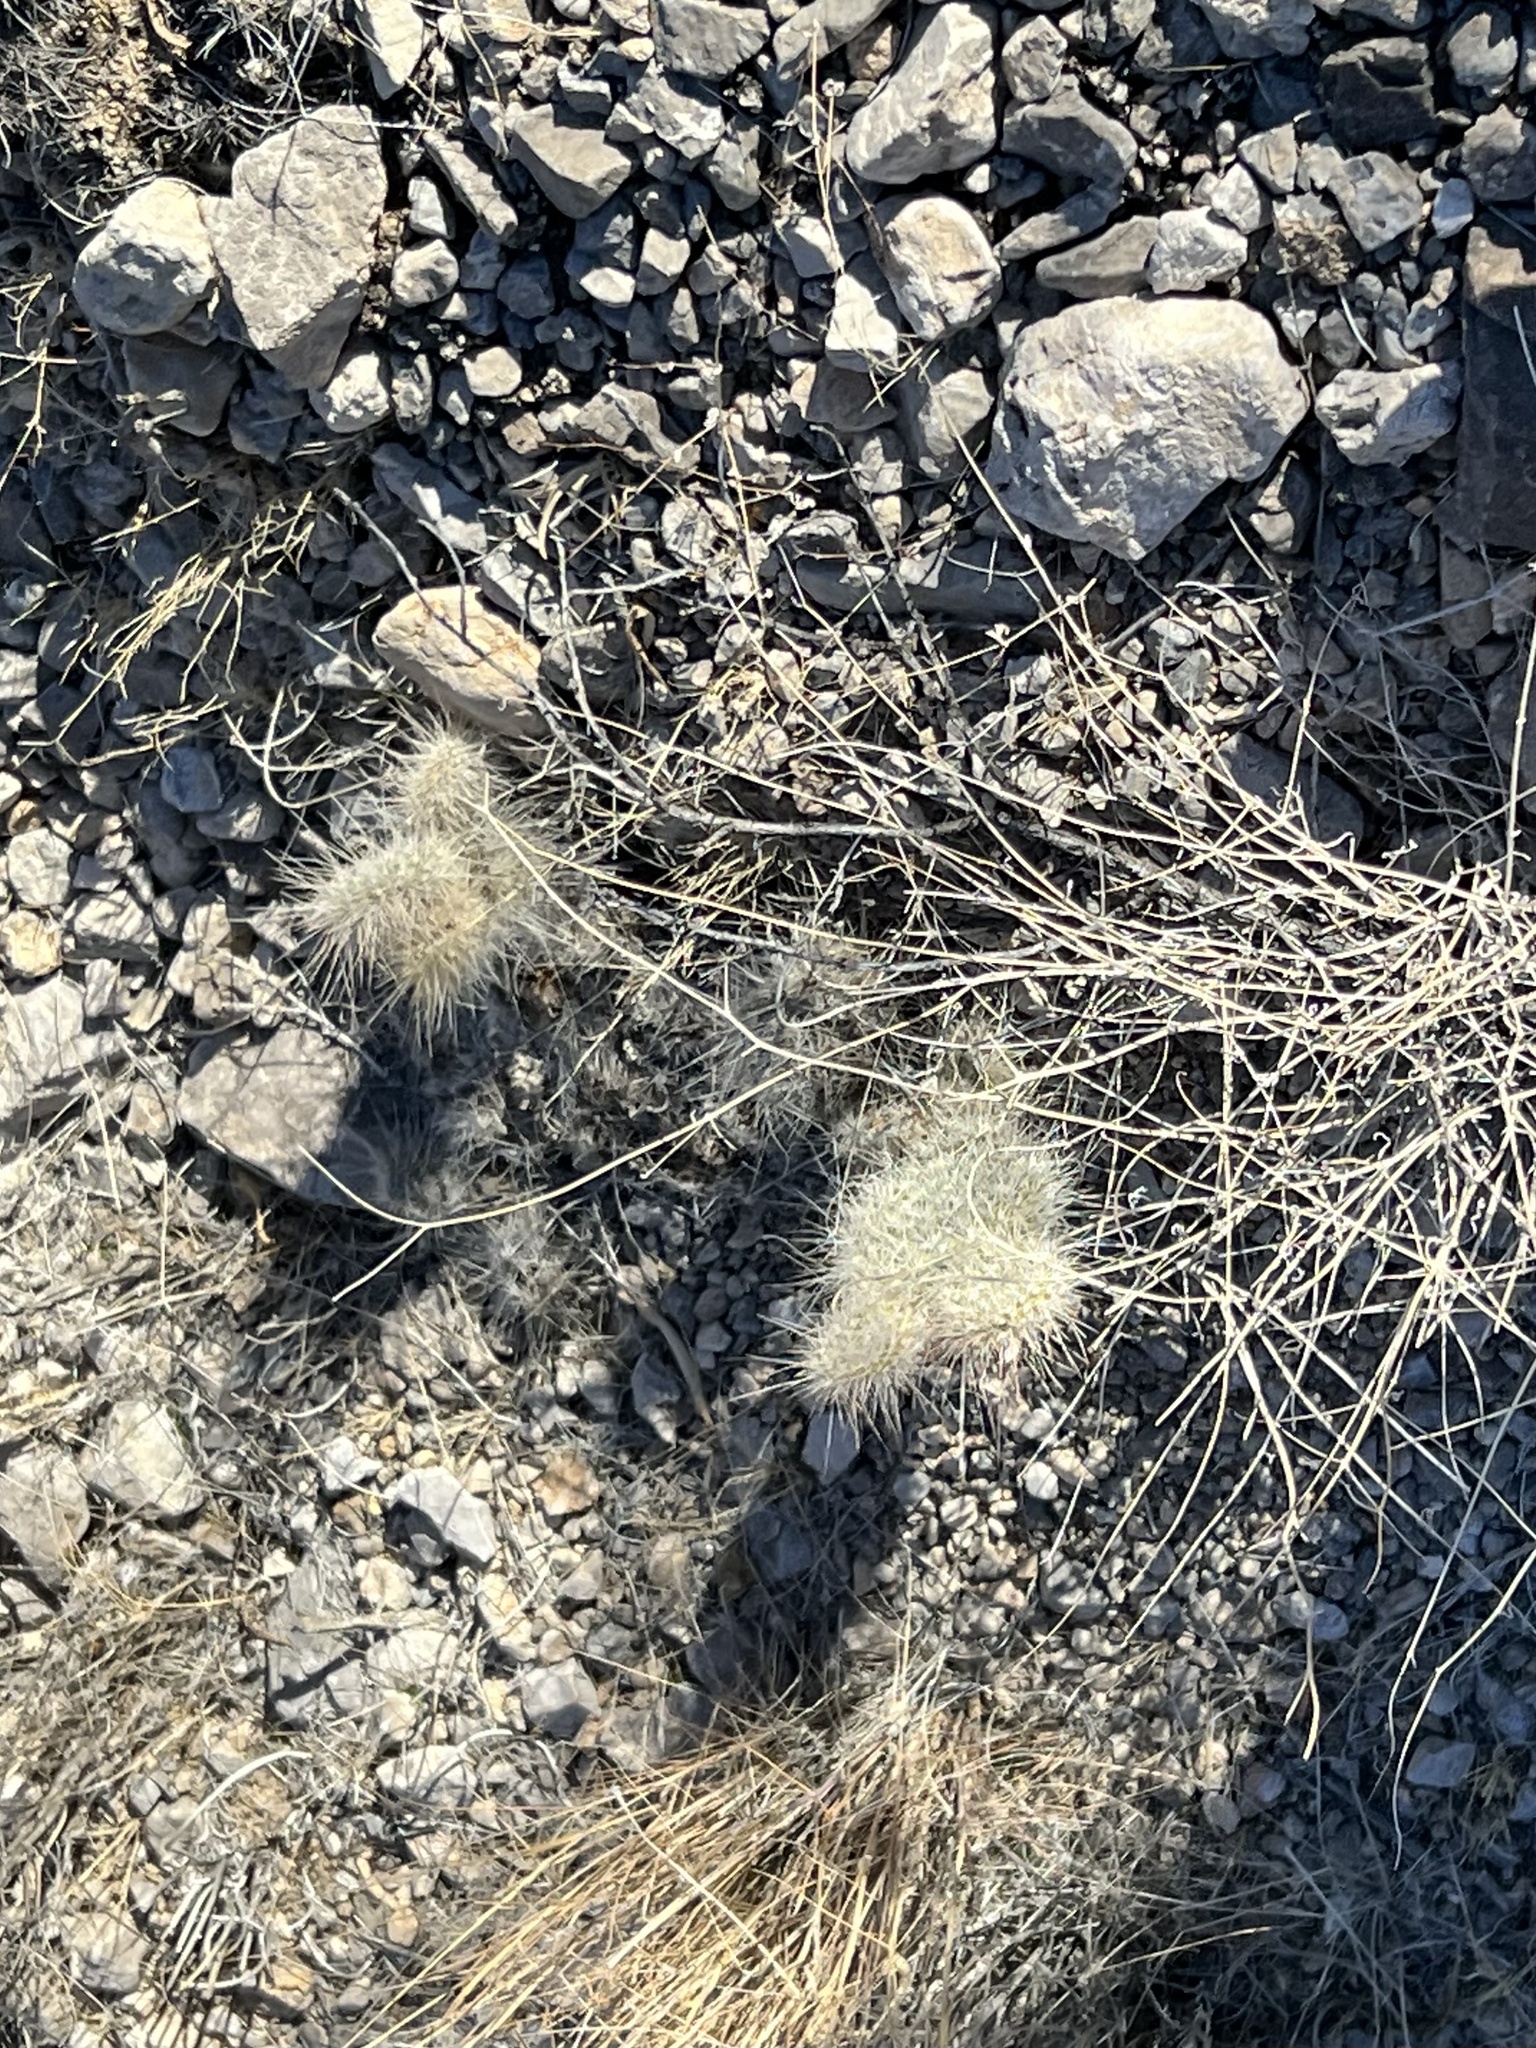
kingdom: Plantae
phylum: Tracheophyta
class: Magnoliopsida
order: Caryophyllales
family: Cactaceae
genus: Opuntia
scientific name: Opuntia polyacantha
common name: Plains prickly-pear
